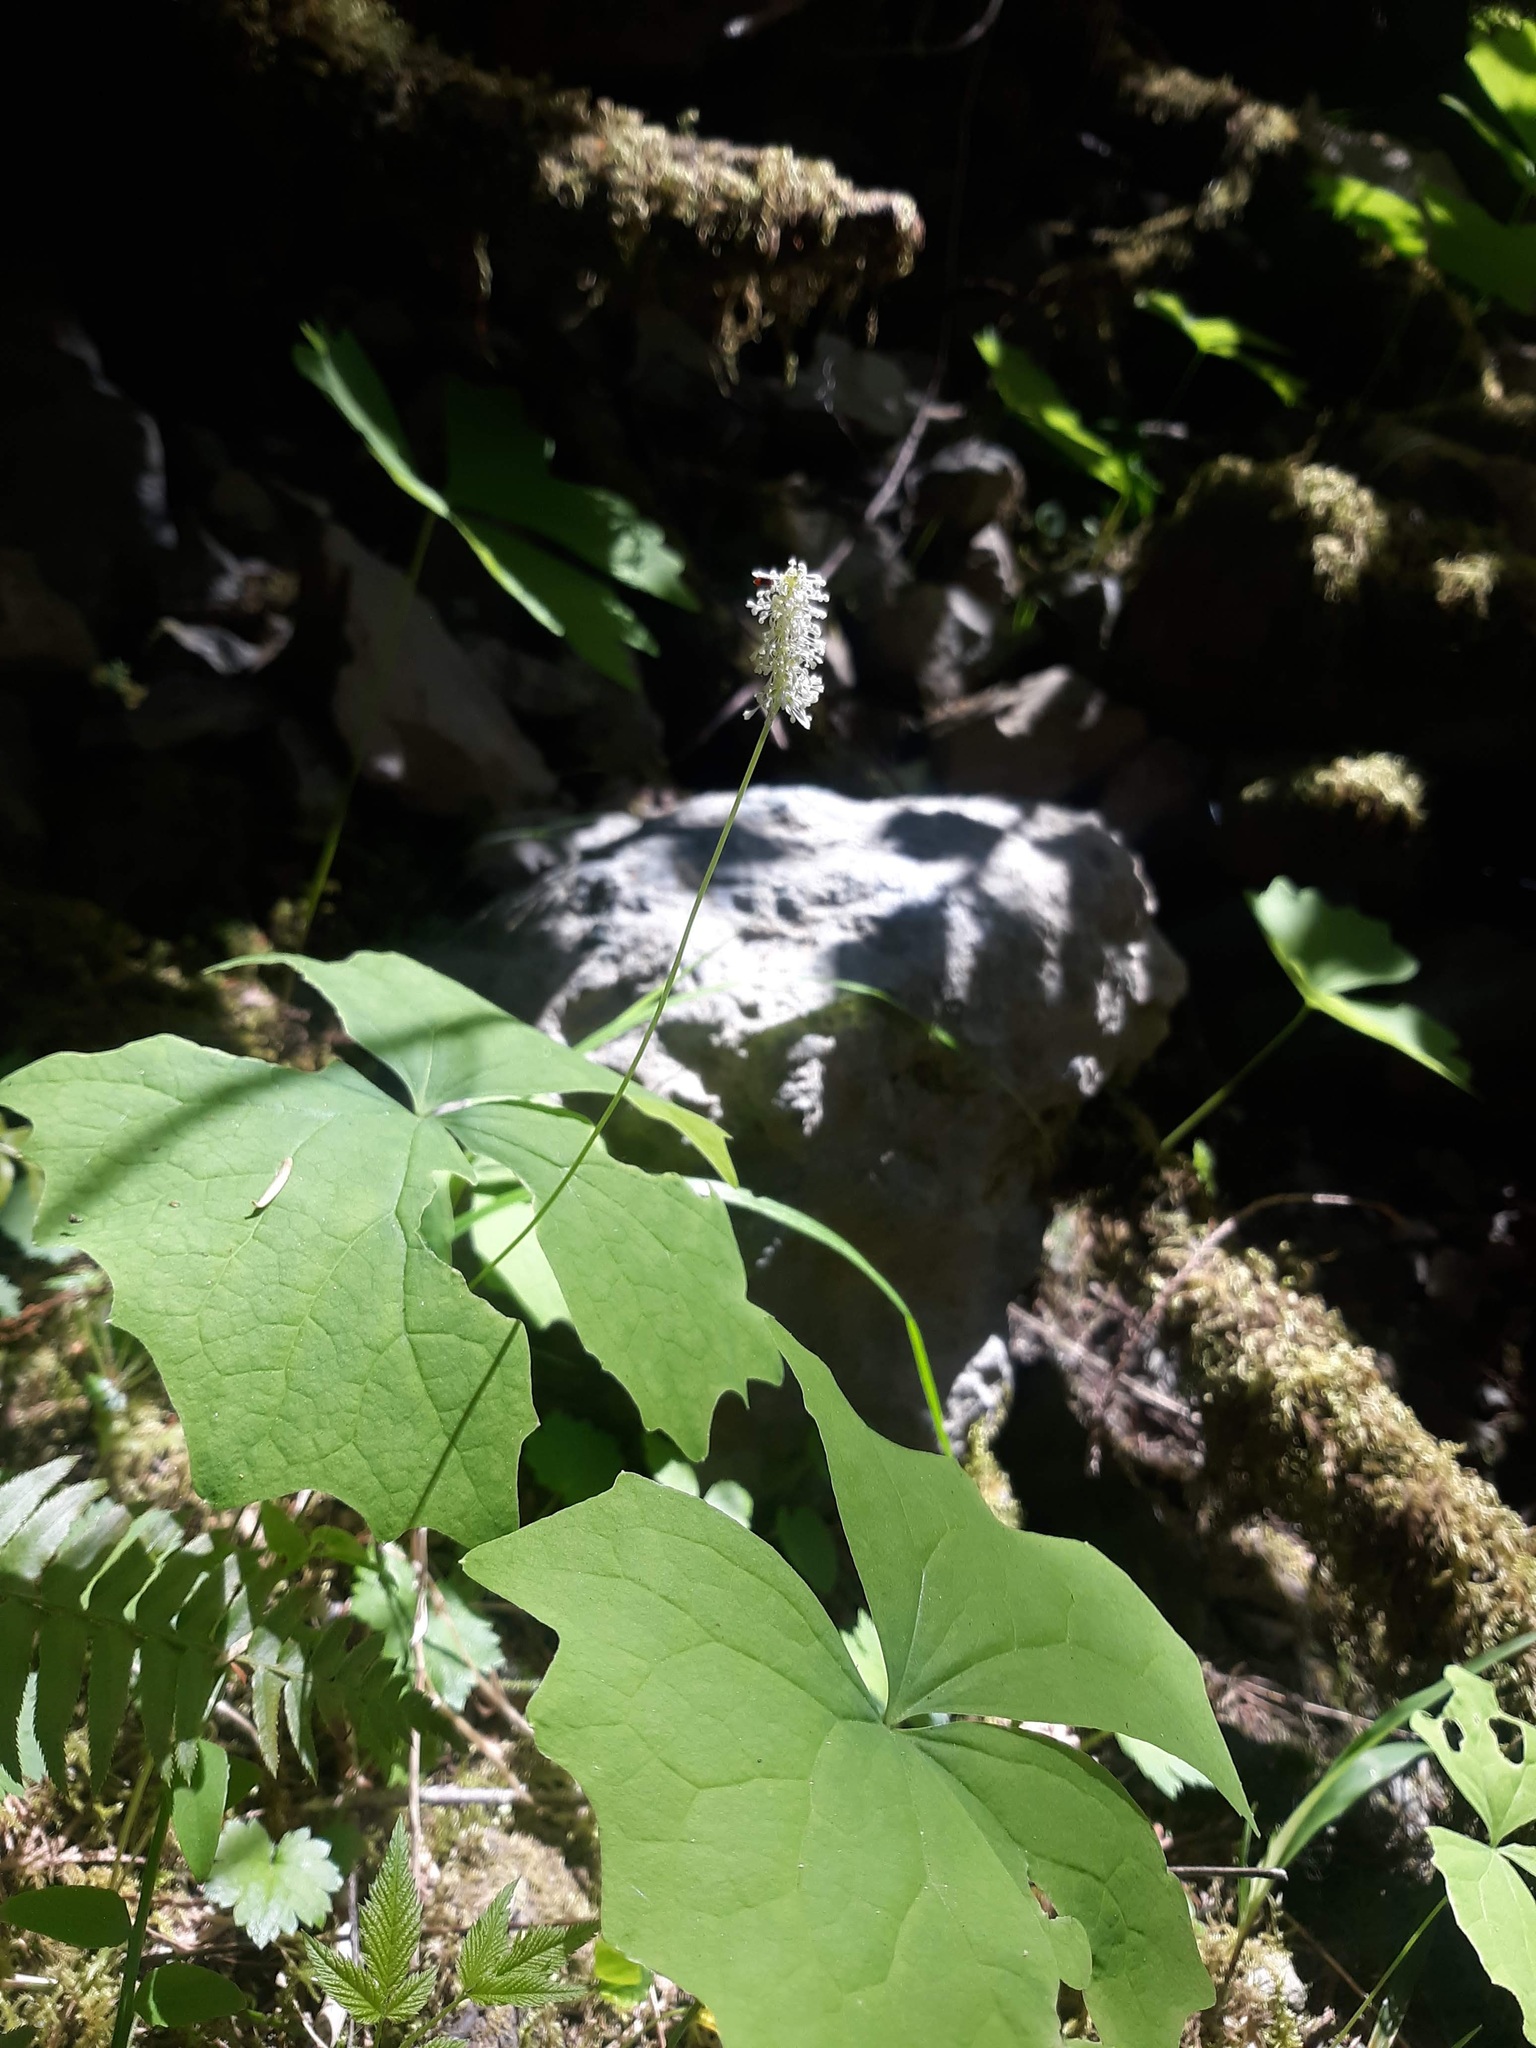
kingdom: Plantae
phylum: Tracheophyta
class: Magnoliopsida
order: Ranunculales
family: Berberidaceae
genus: Achlys
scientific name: Achlys triphylla
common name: Vanilla-leaf
